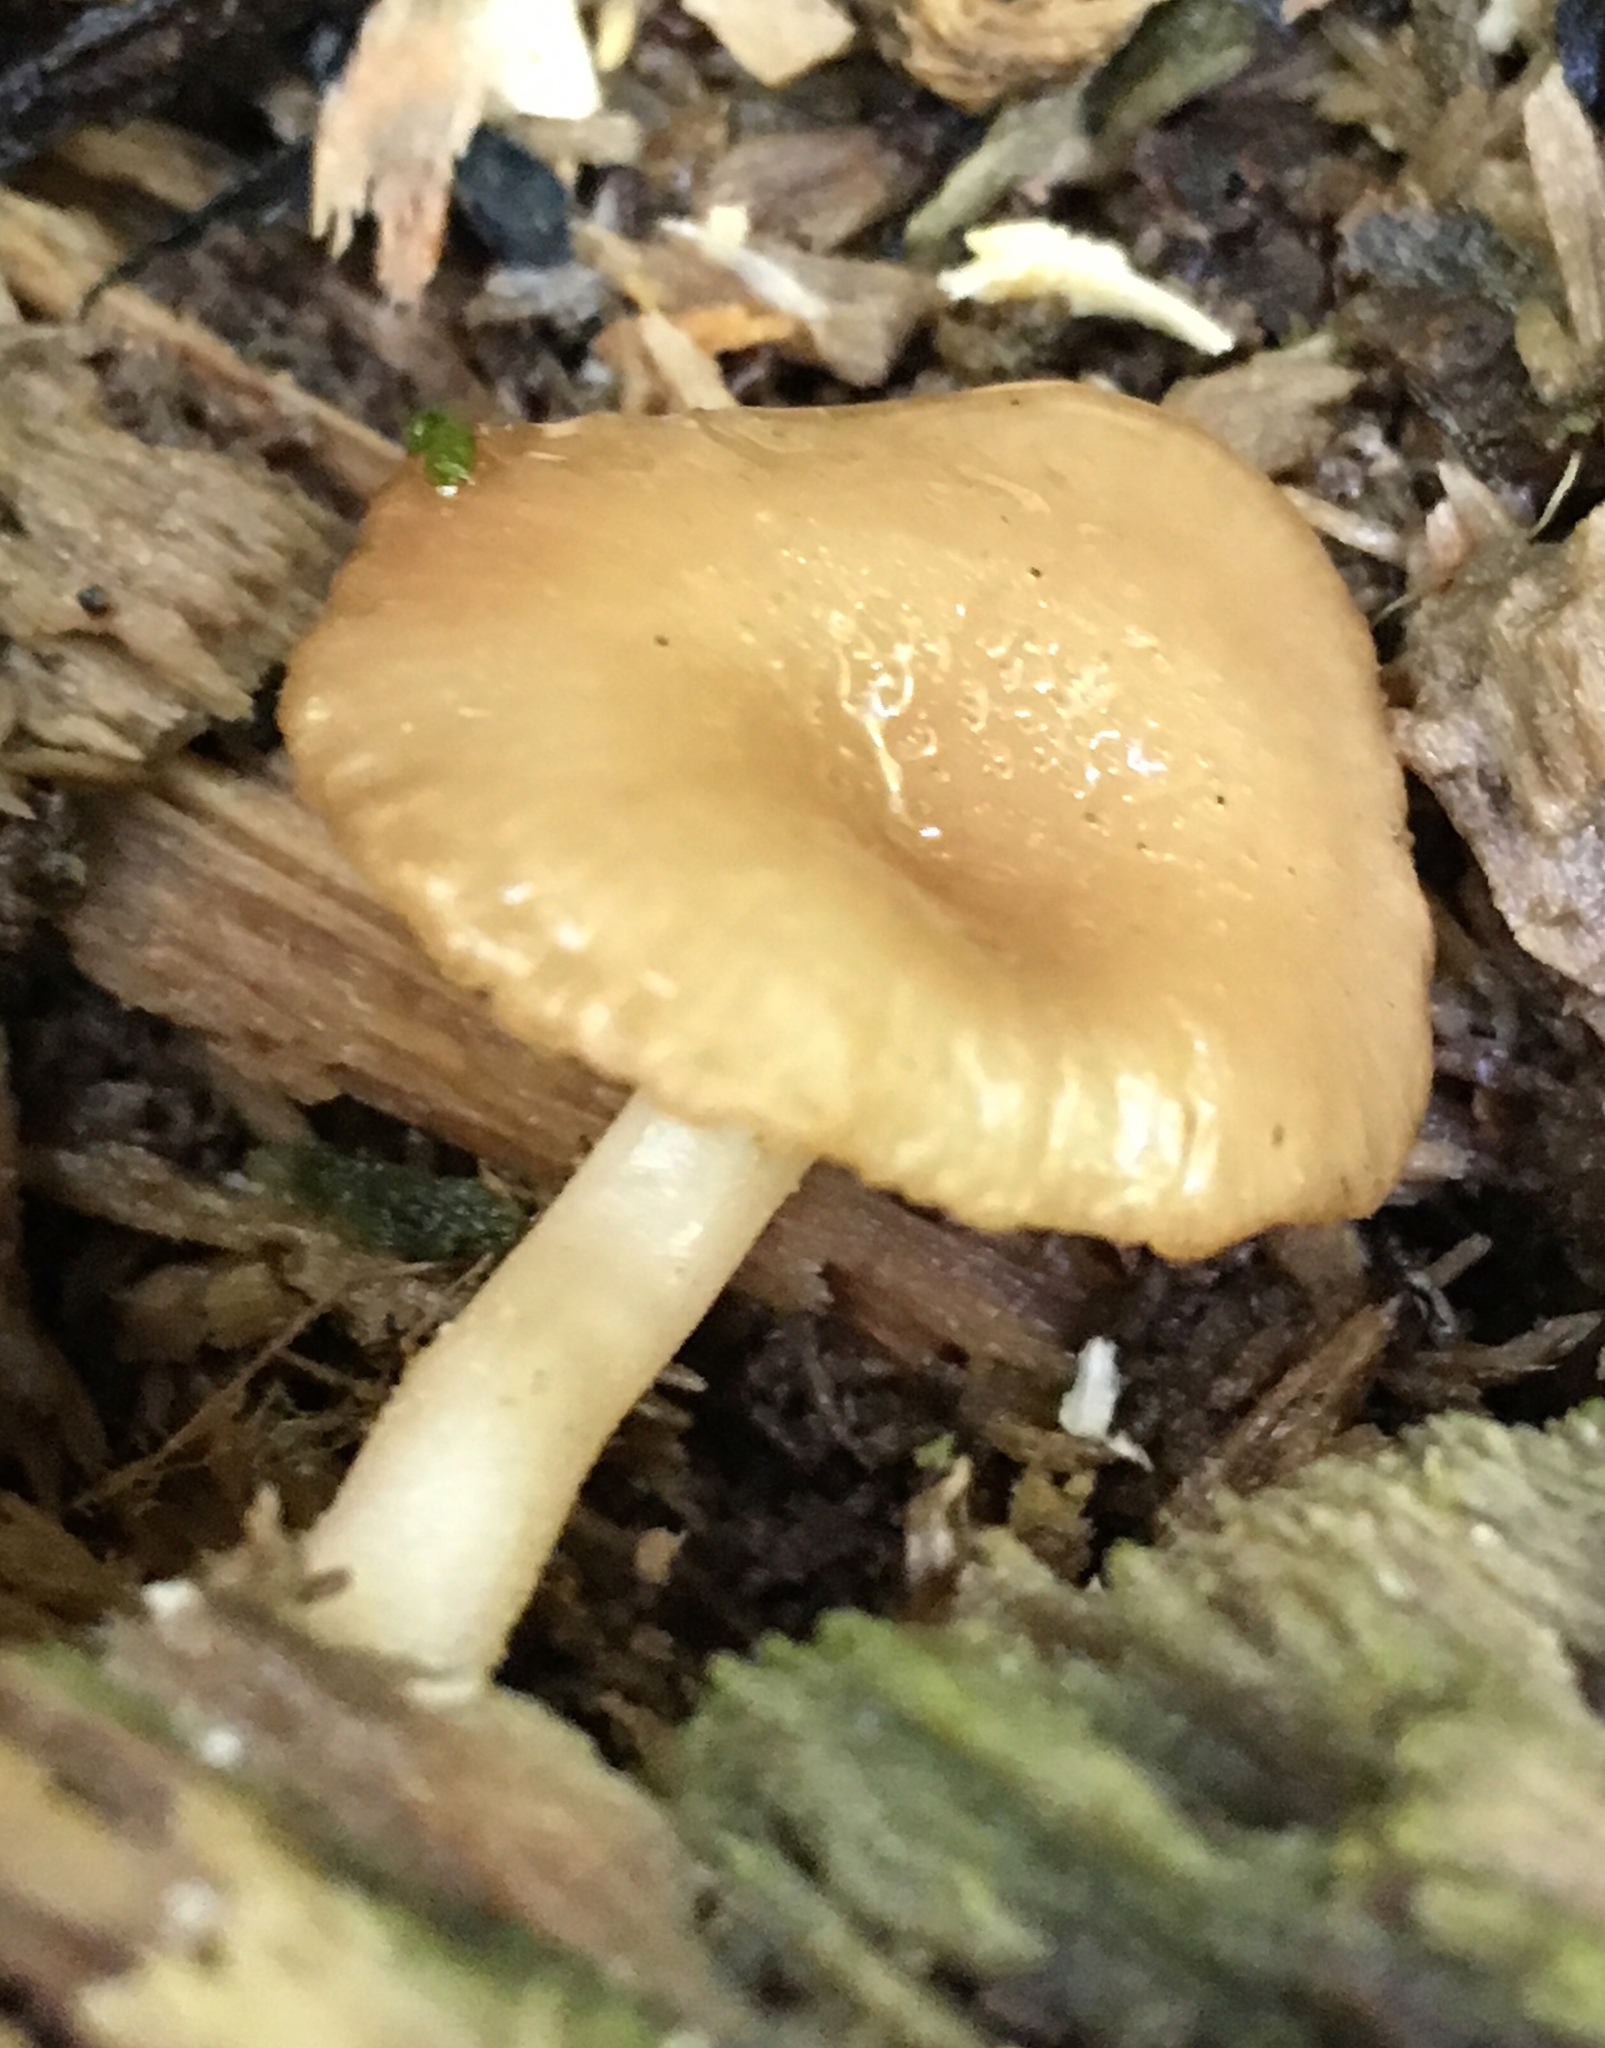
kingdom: Fungi
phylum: Basidiomycota
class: Agaricomycetes
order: Agaricales
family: Mycenaceae
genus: Xeromphalina
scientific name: Xeromphalina campanella
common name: Pinewood gingertail
